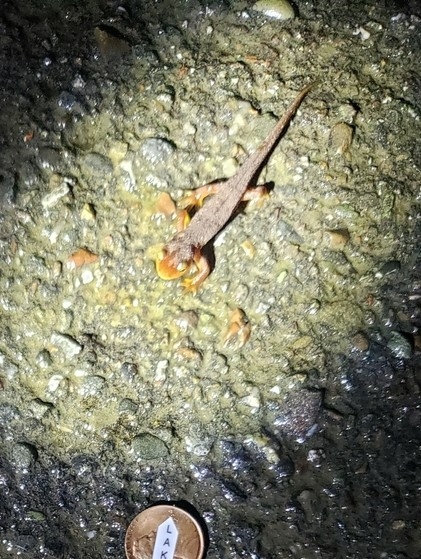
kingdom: Animalia
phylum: Chordata
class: Amphibia
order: Caudata
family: Salamandridae
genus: Taricha
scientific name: Taricha torosa
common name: California newt
